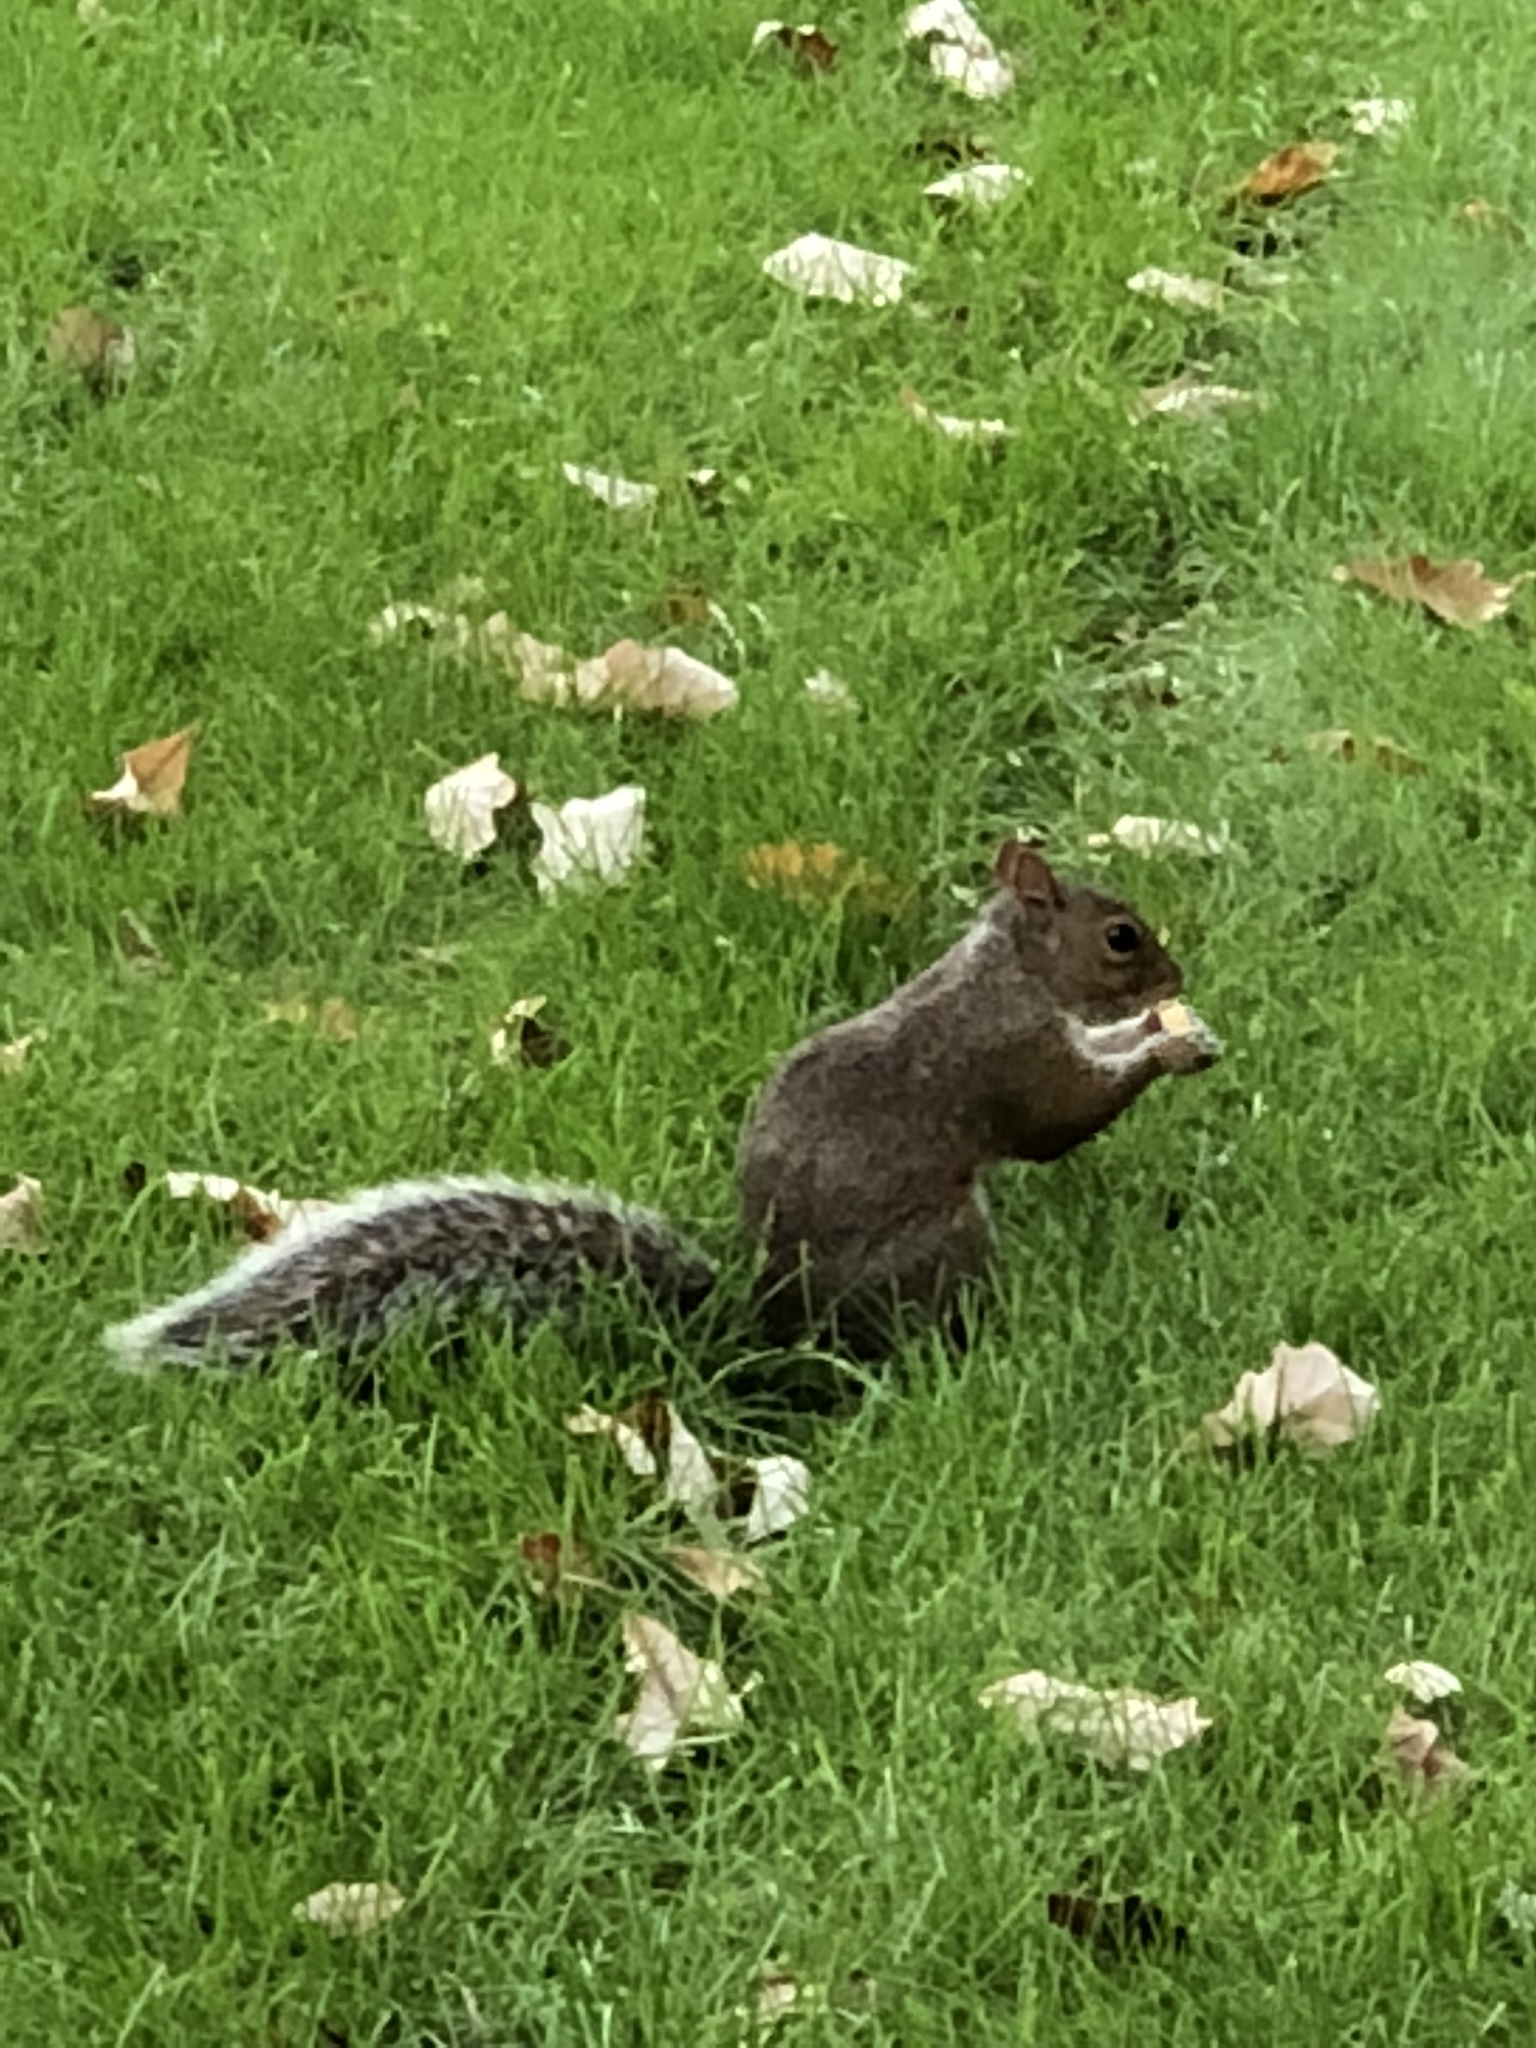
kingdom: Animalia
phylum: Chordata
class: Mammalia
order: Rodentia
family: Sciuridae
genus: Sciurus
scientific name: Sciurus carolinensis
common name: Eastern gray squirrel
